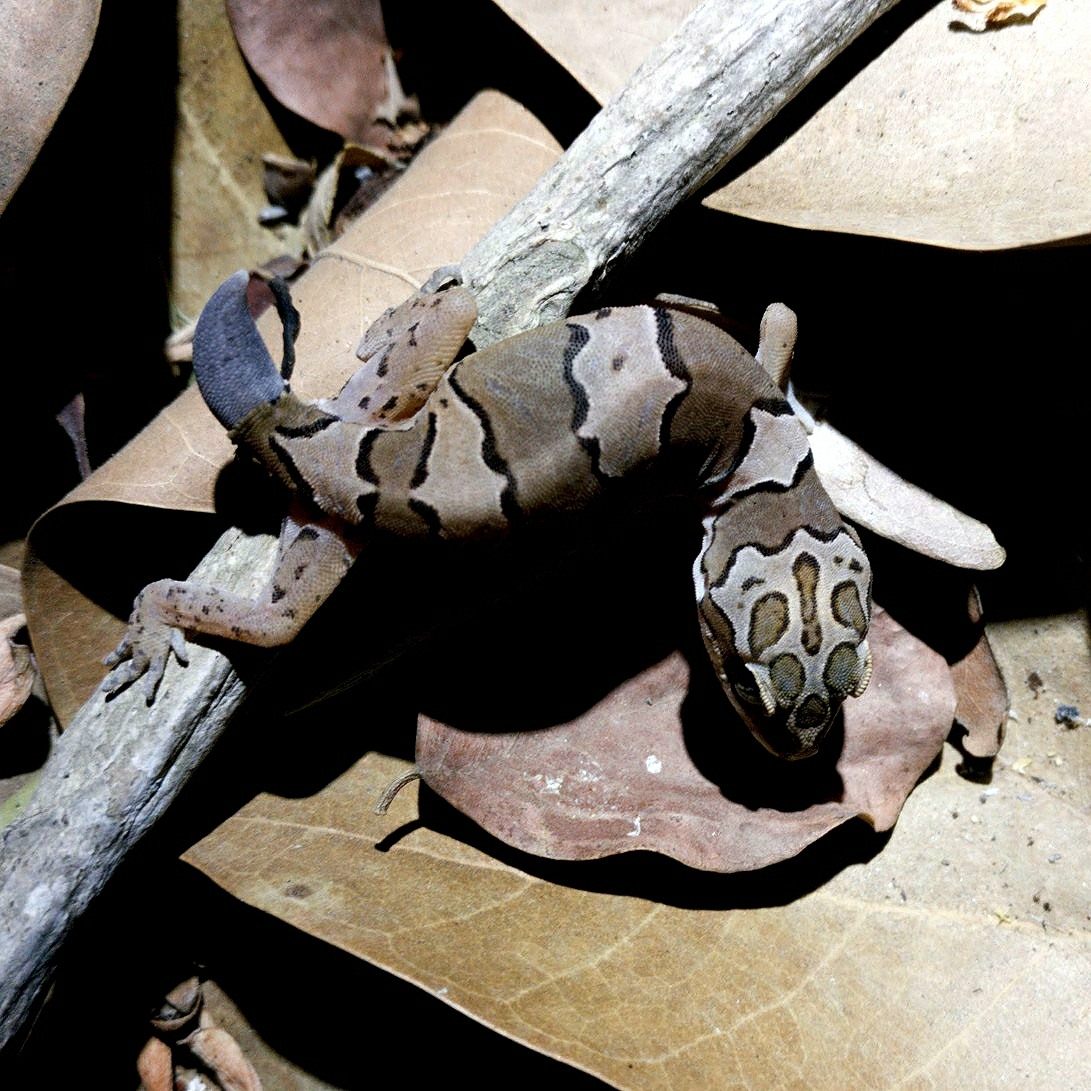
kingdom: Animalia
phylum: Chordata
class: Squamata
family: Gekkonidae
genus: Cyrtodactylus
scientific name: Cyrtodactylus collegalensis
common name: Forest spotted gecko
